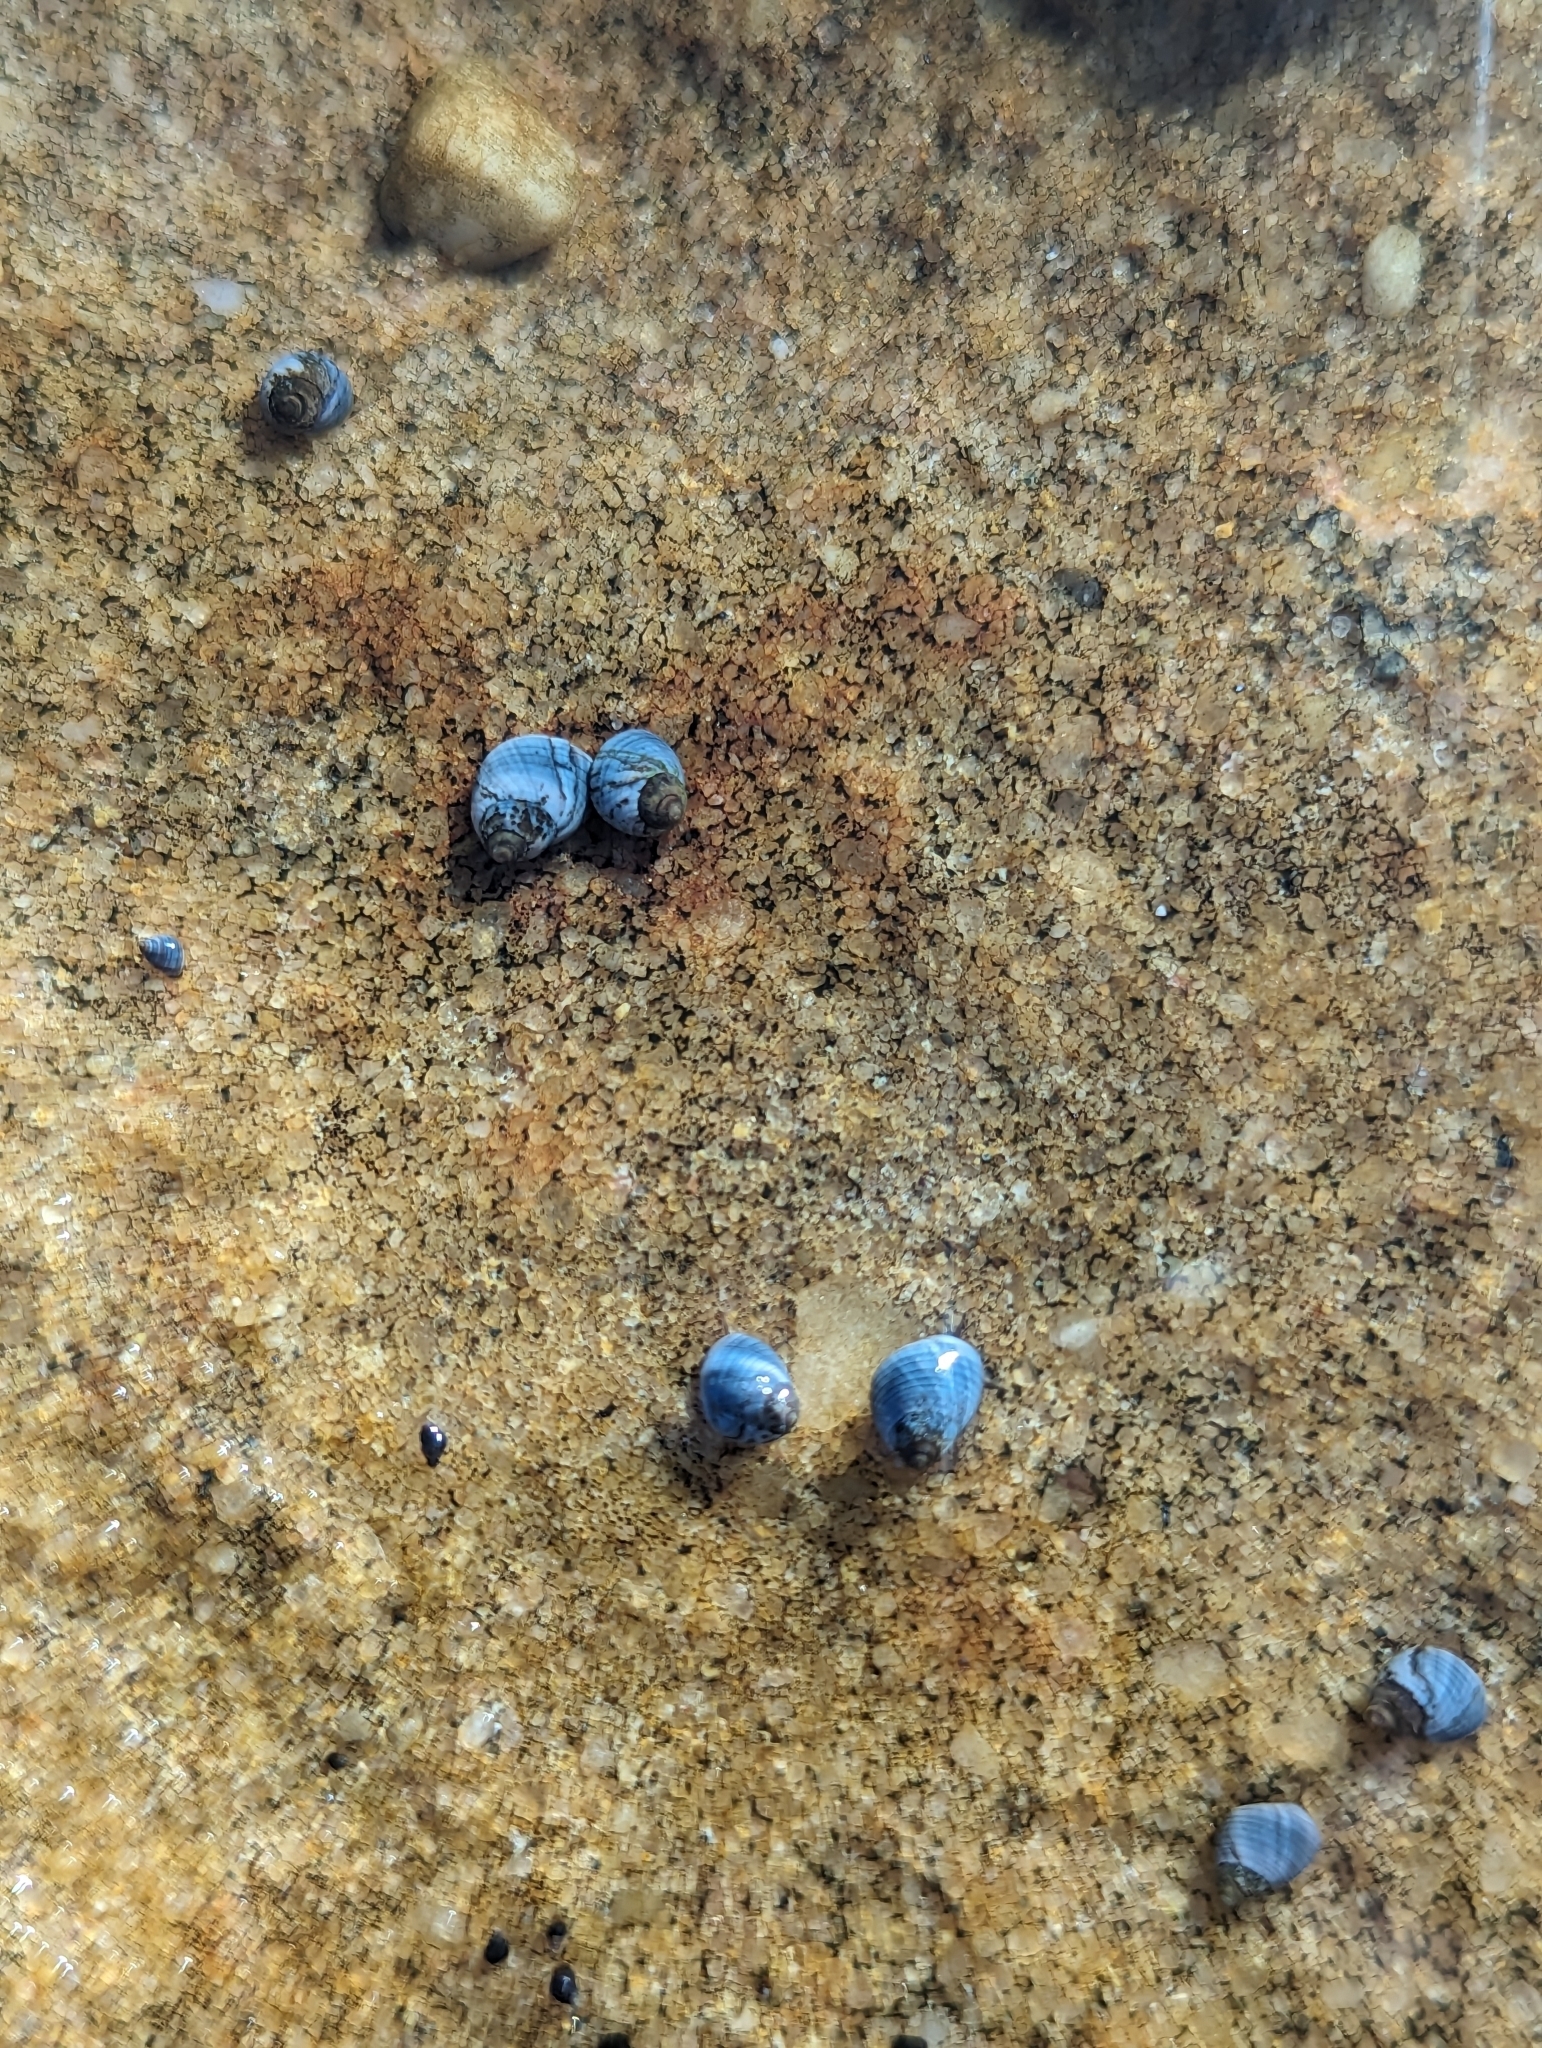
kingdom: Animalia
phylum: Mollusca
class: Gastropoda
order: Littorinimorpha
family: Littorinidae
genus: Austrolittorina
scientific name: Austrolittorina unifasciata
